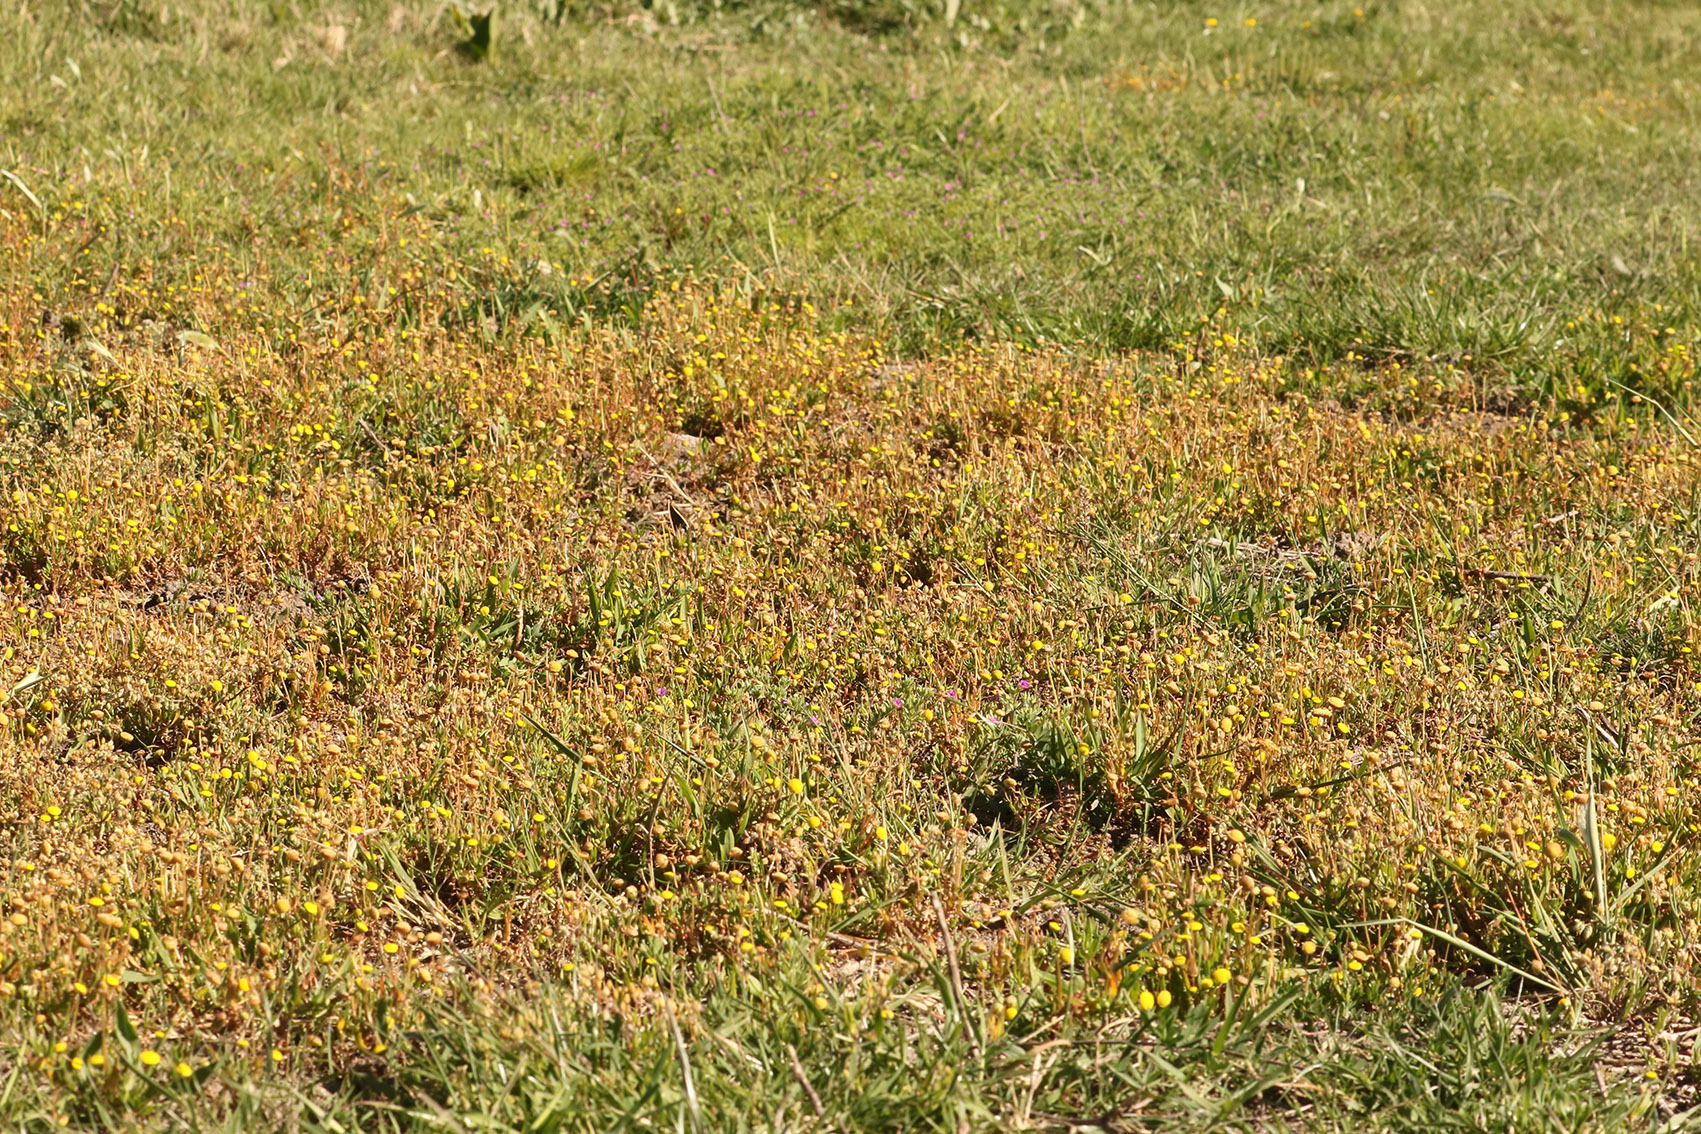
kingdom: Plantae
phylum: Tracheophyta
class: Magnoliopsida
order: Asterales
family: Asteraceae
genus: Cotula
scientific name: Cotula coronopifolia
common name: Buttonweed
